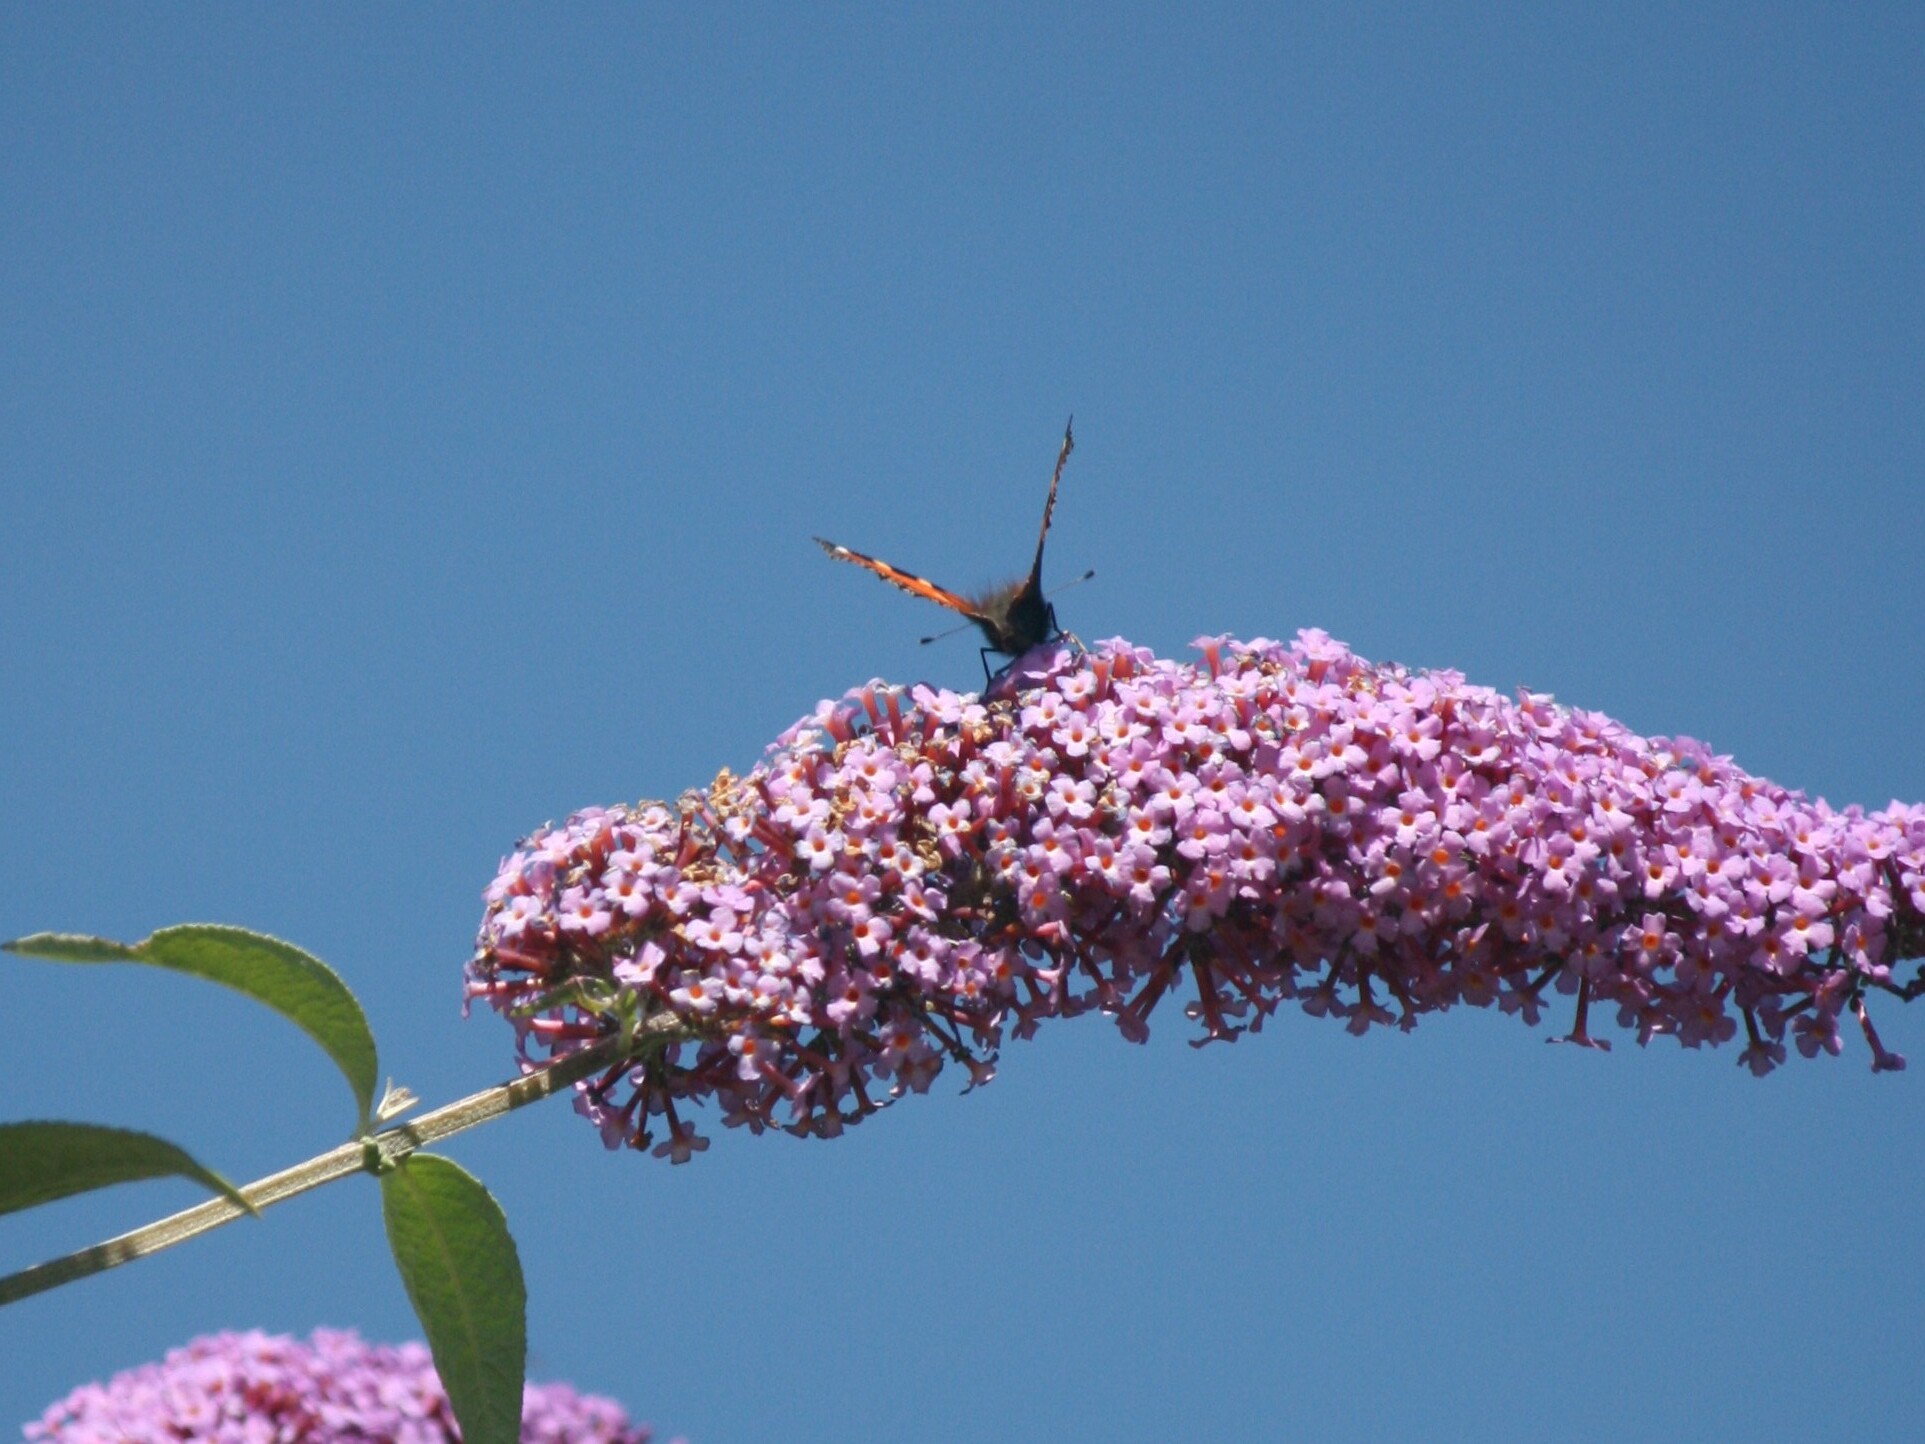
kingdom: Animalia
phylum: Arthropoda
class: Insecta
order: Lepidoptera
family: Nymphalidae
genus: Aglais
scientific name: Aglais urticae
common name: Small tortoiseshell
